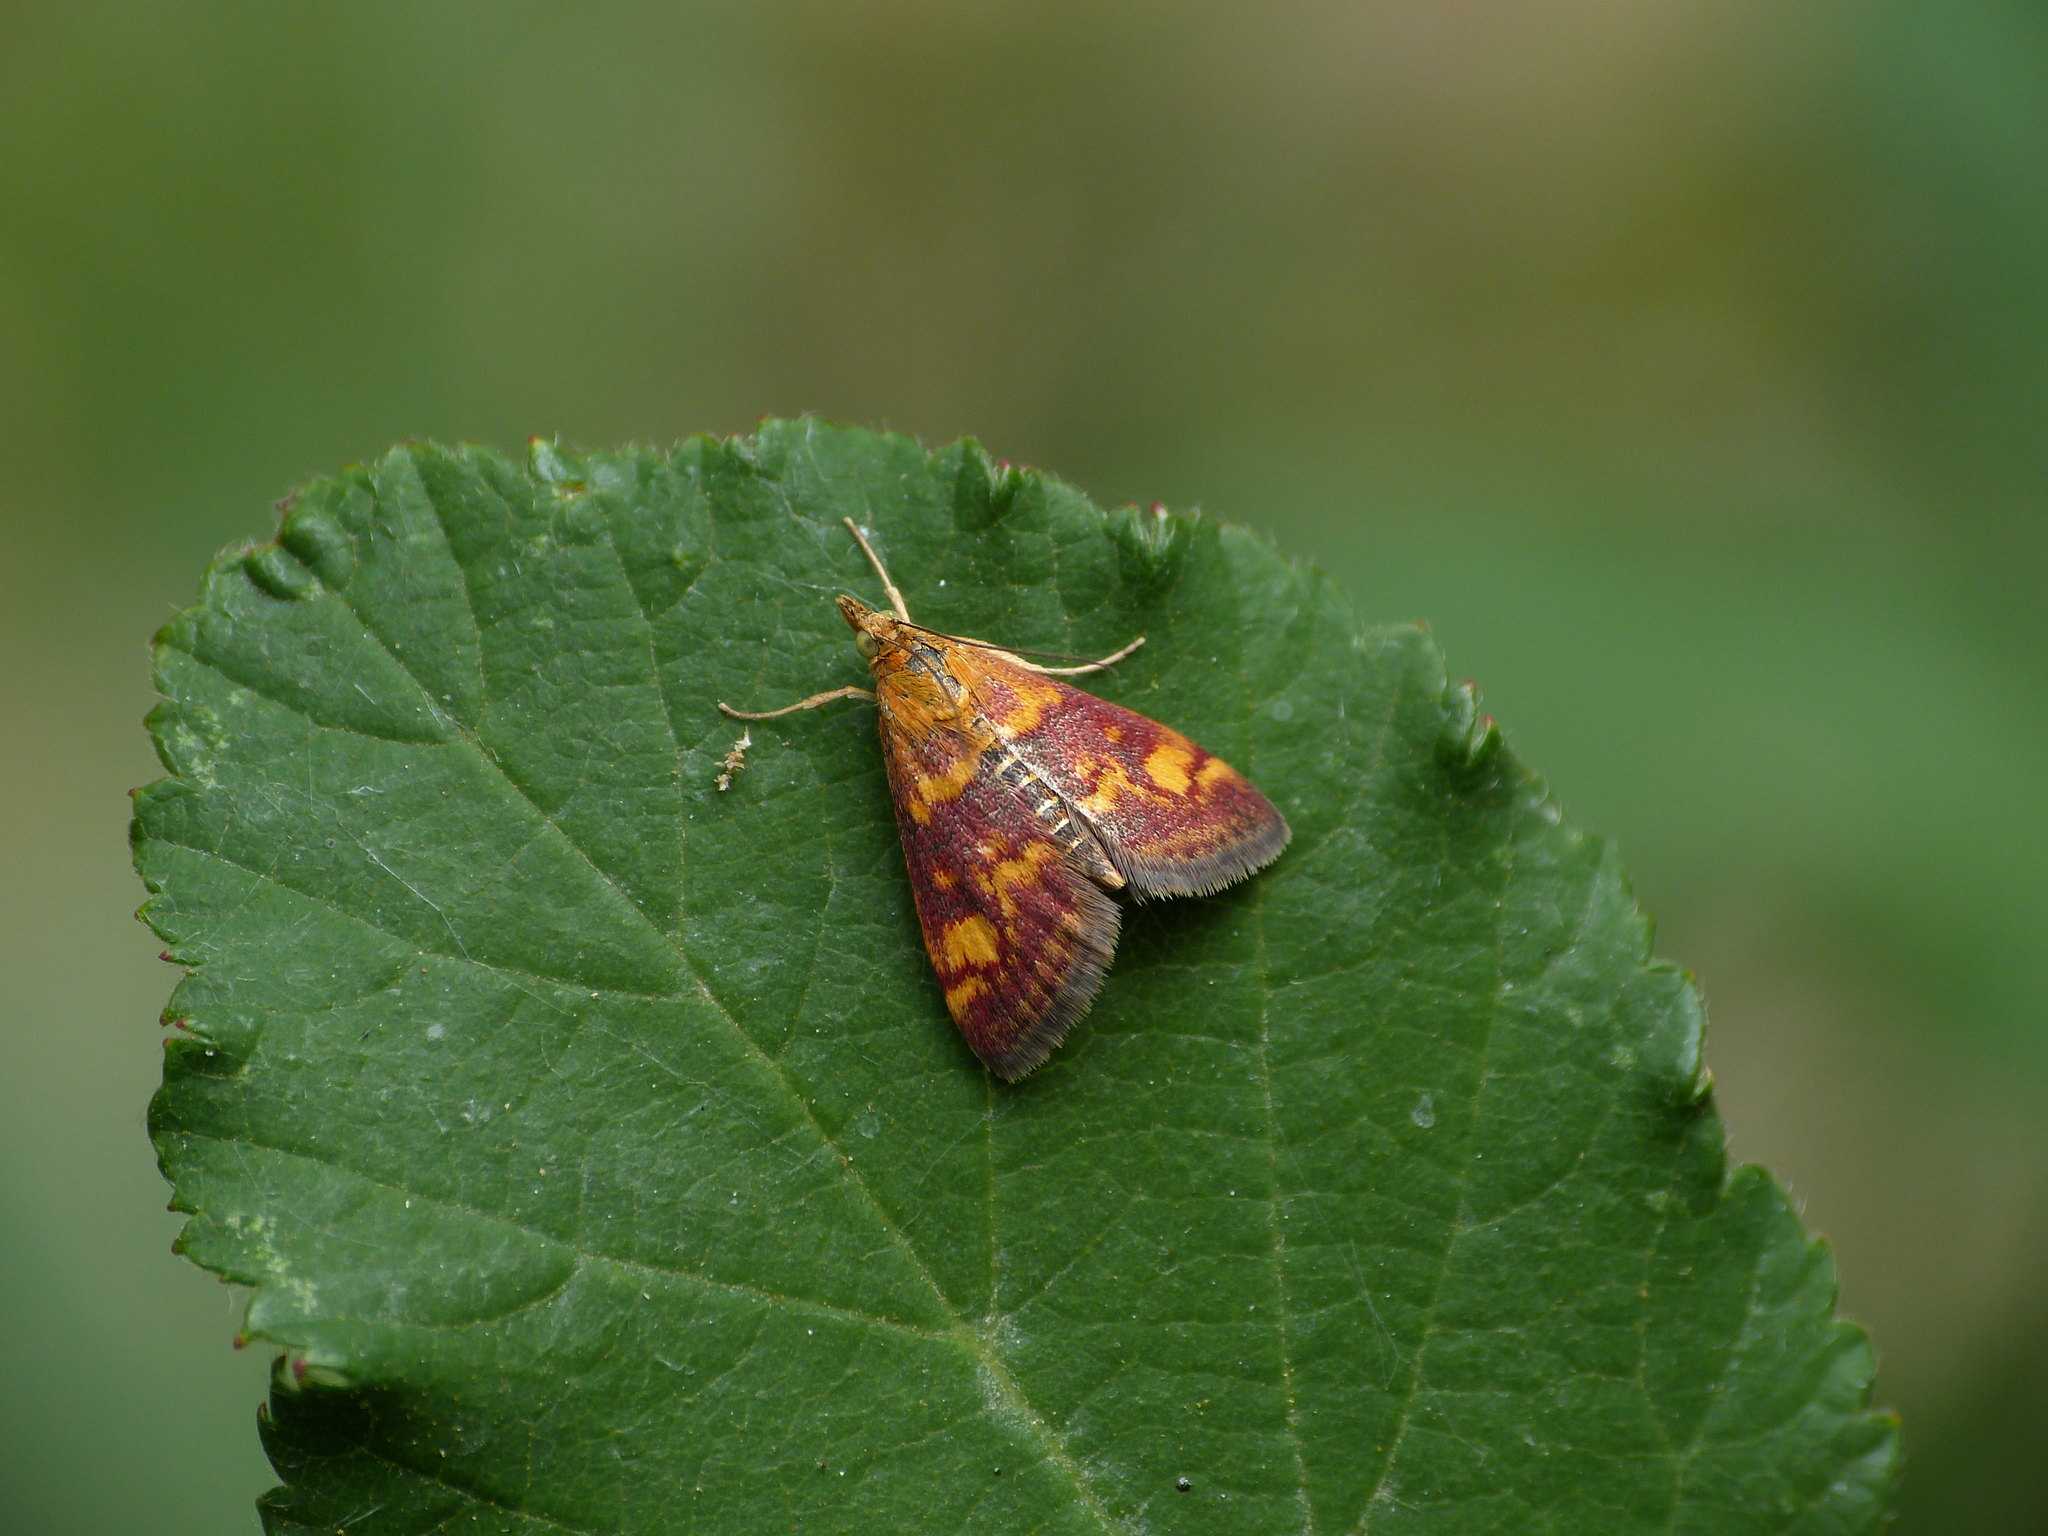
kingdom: Animalia
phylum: Arthropoda
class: Insecta
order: Lepidoptera
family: Crambidae
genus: Pyrausta
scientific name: Pyrausta aurata
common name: Small purple & gold
